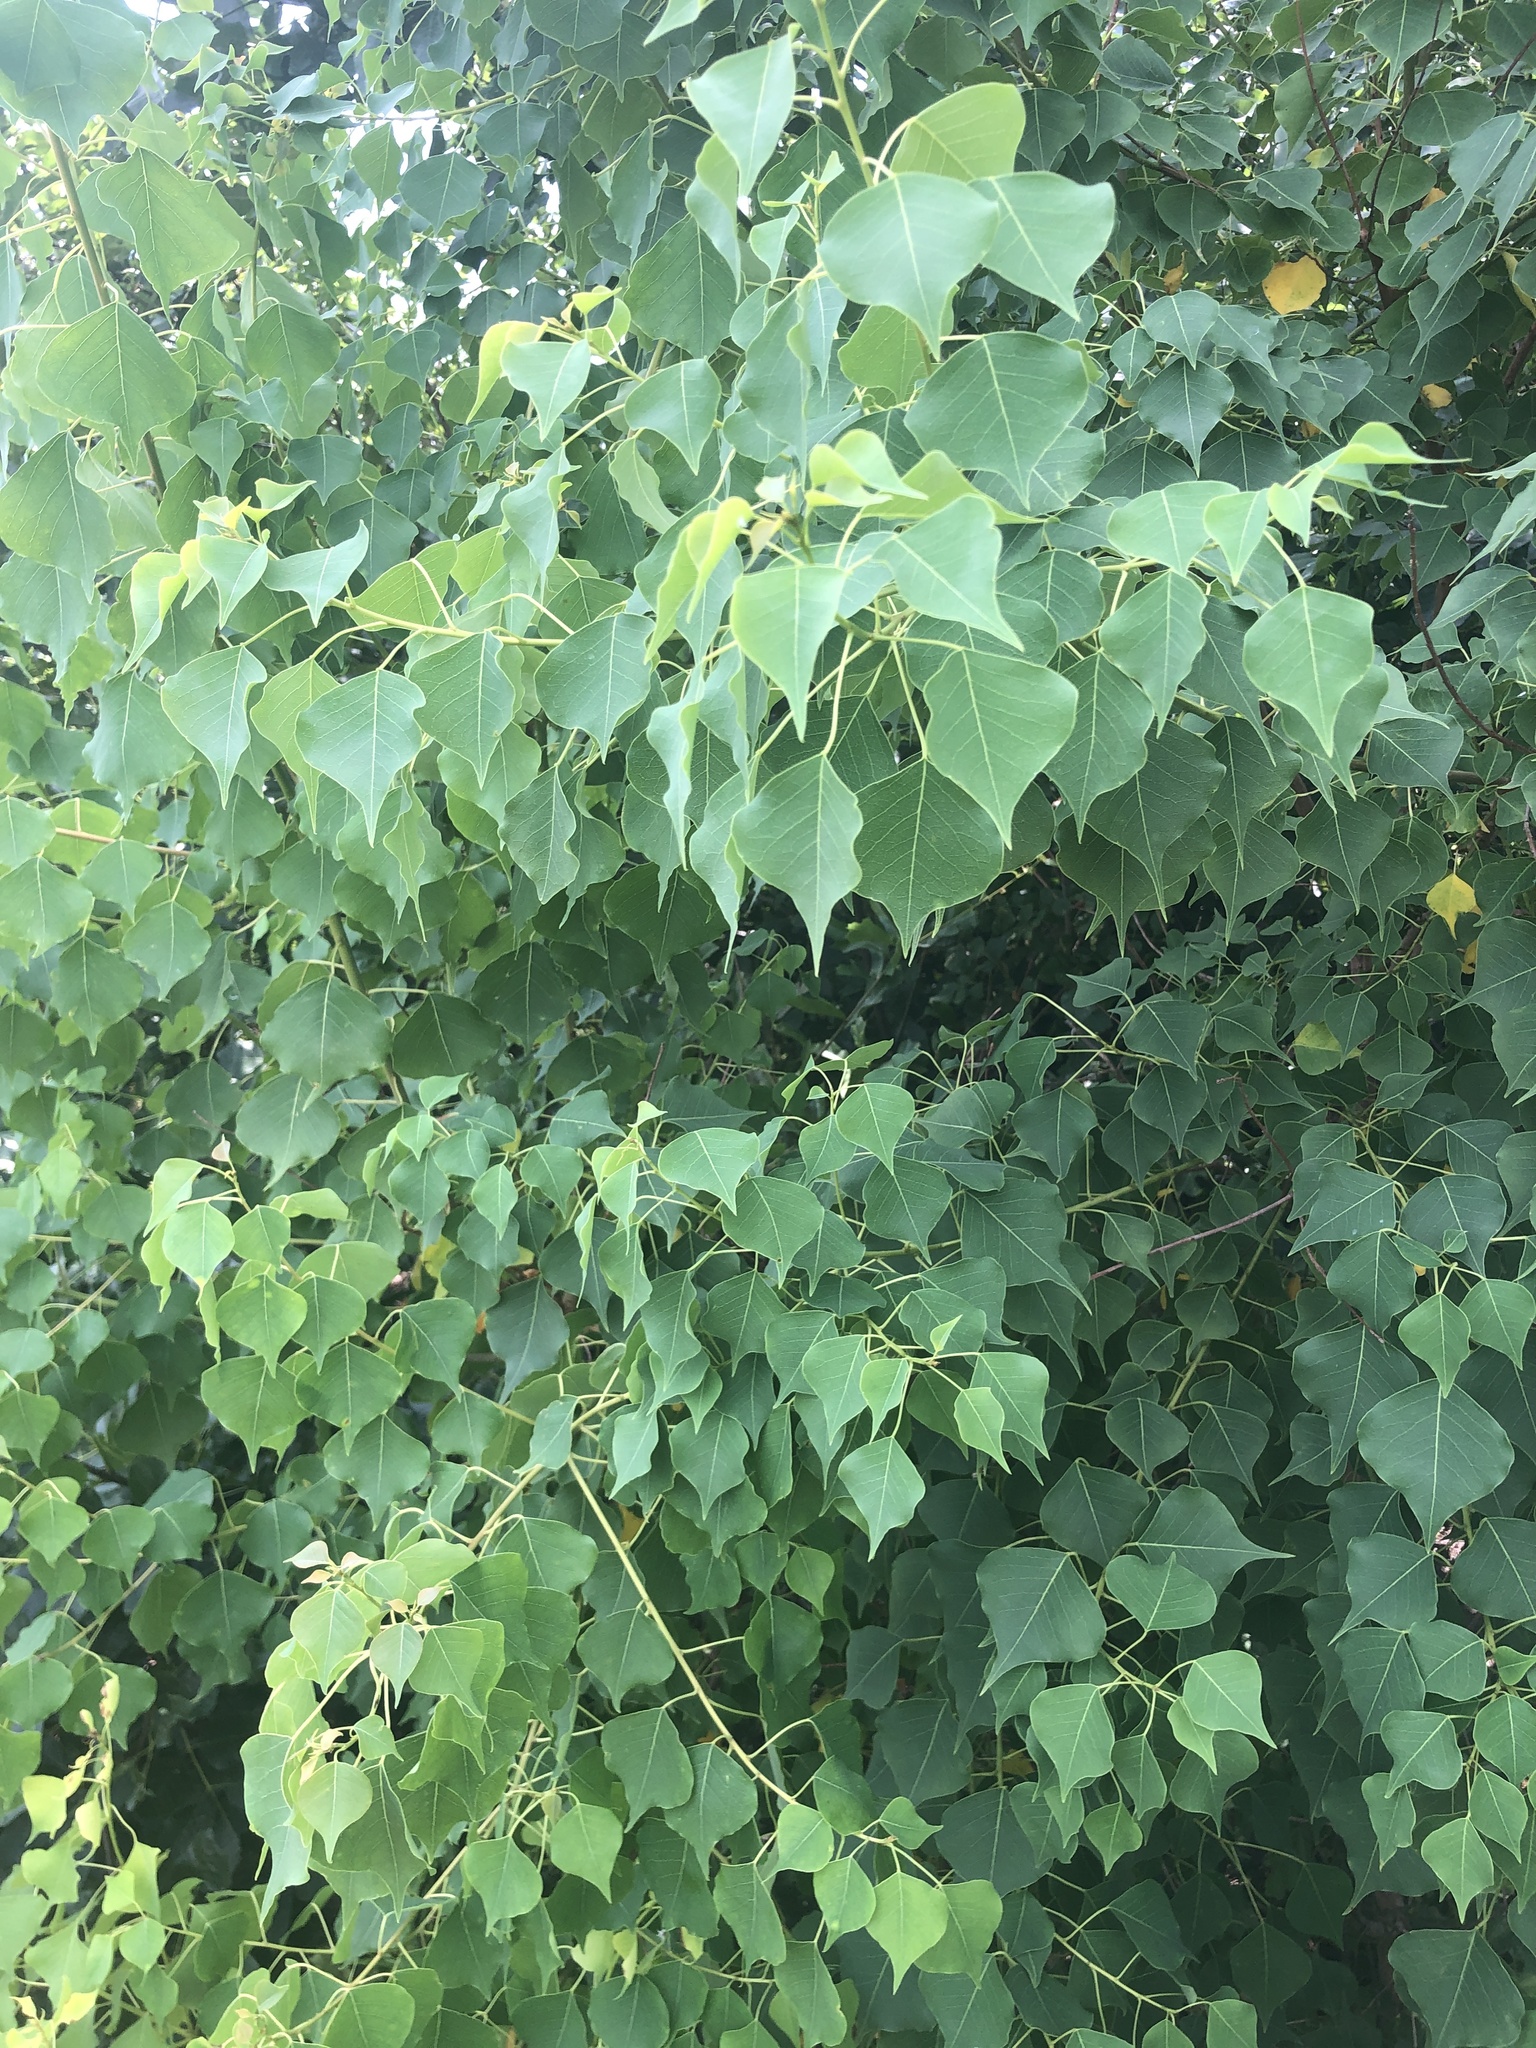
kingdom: Plantae
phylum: Tracheophyta
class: Magnoliopsida
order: Malpighiales
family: Euphorbiaceae
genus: Triadica
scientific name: Triadica sebifera
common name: Chinese tallow
